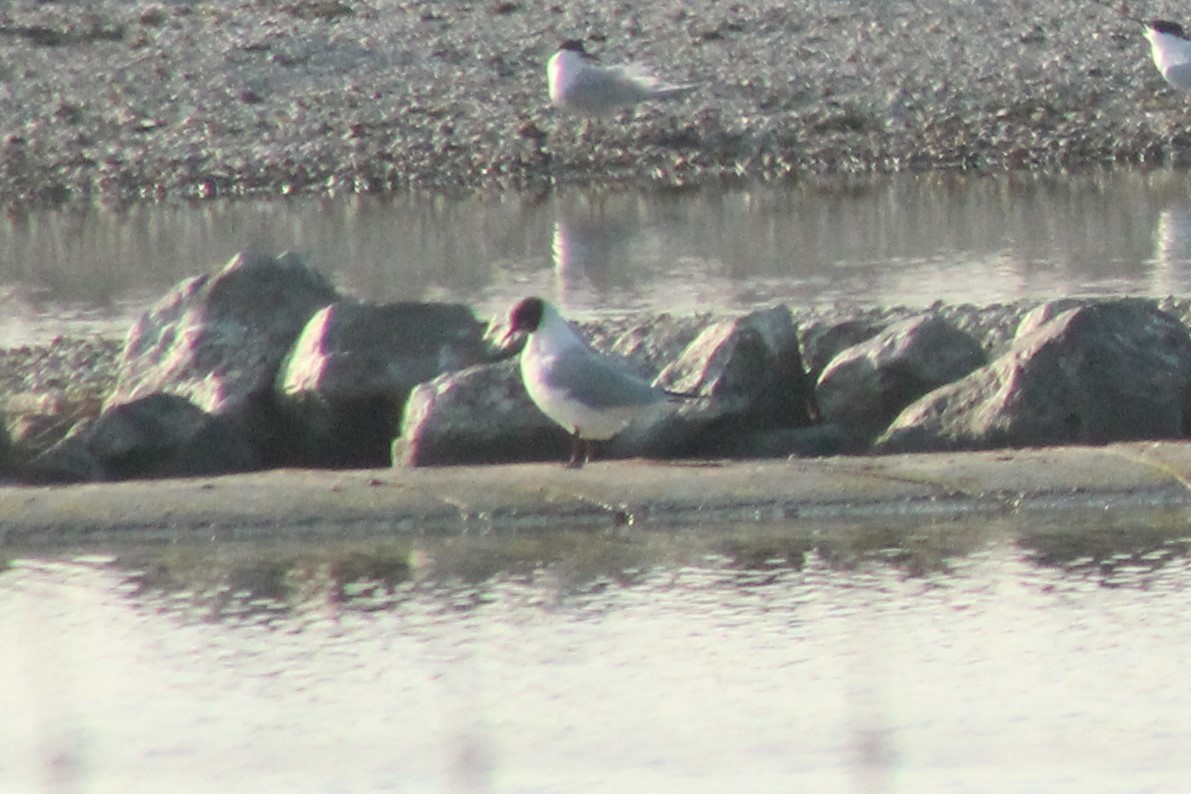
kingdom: Animalia
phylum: Chordata
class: Aves
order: Charadriiformes
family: Laridae
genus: Chroicocephalus
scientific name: Chroicocephalus ridibundus
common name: Black-headed gull
